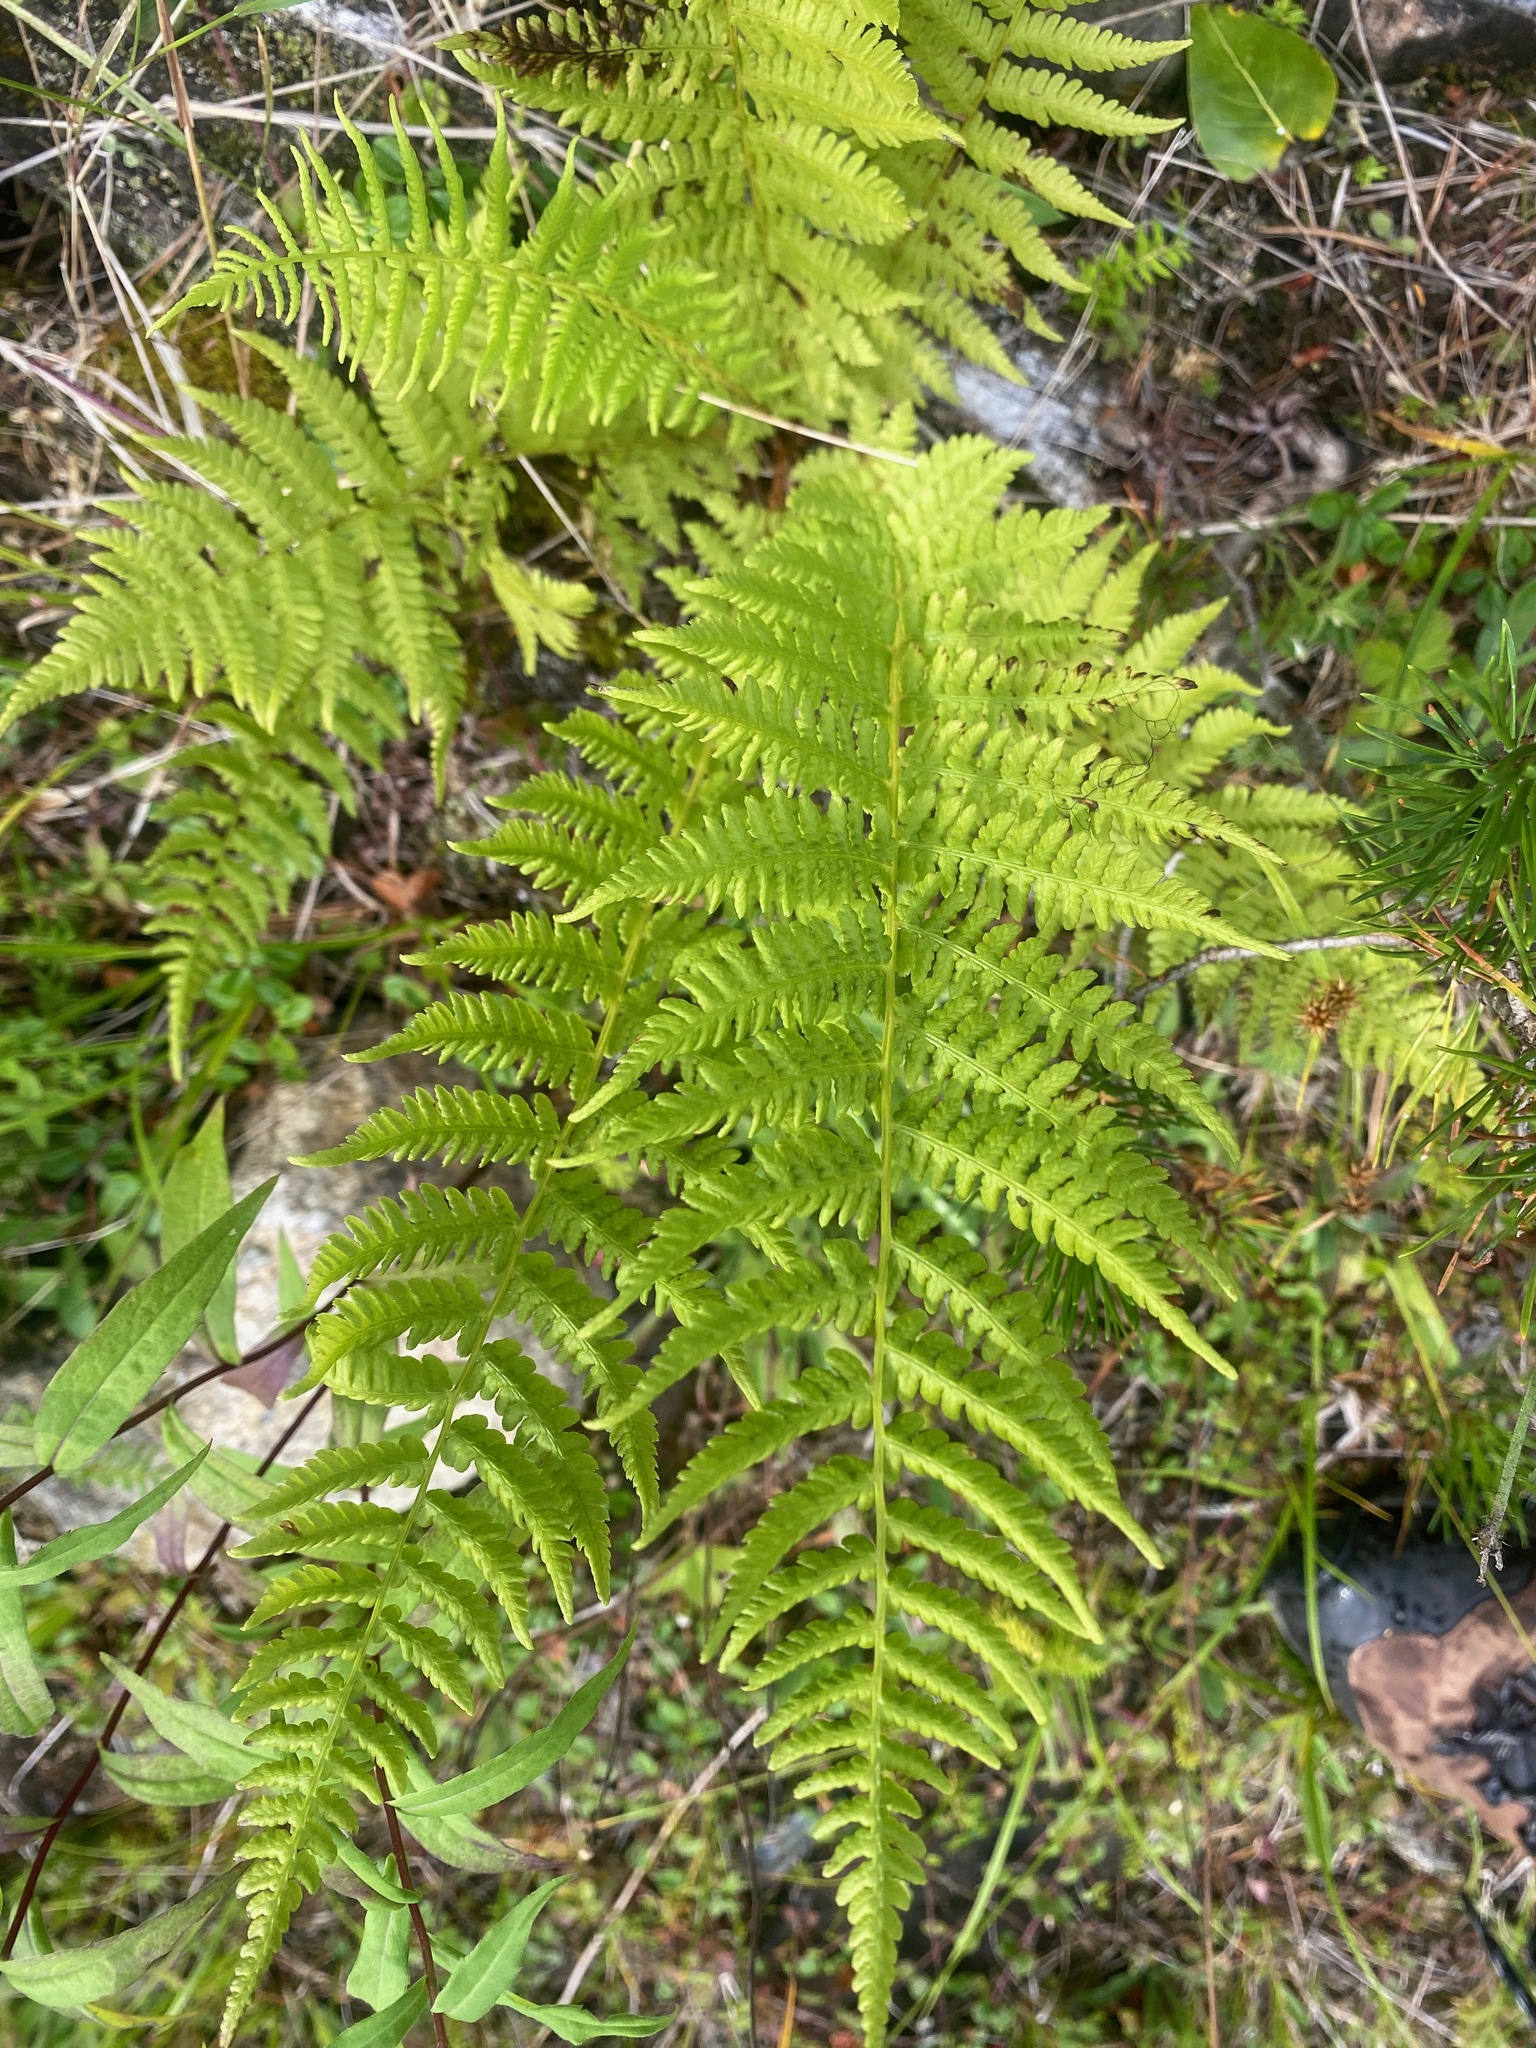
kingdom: Plantae
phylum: Tracheophyta
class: Polypodiopsida
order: Polypodiales
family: Athyriaceae
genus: Athyrium
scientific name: Athyrium filix-femina
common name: Lady fern
